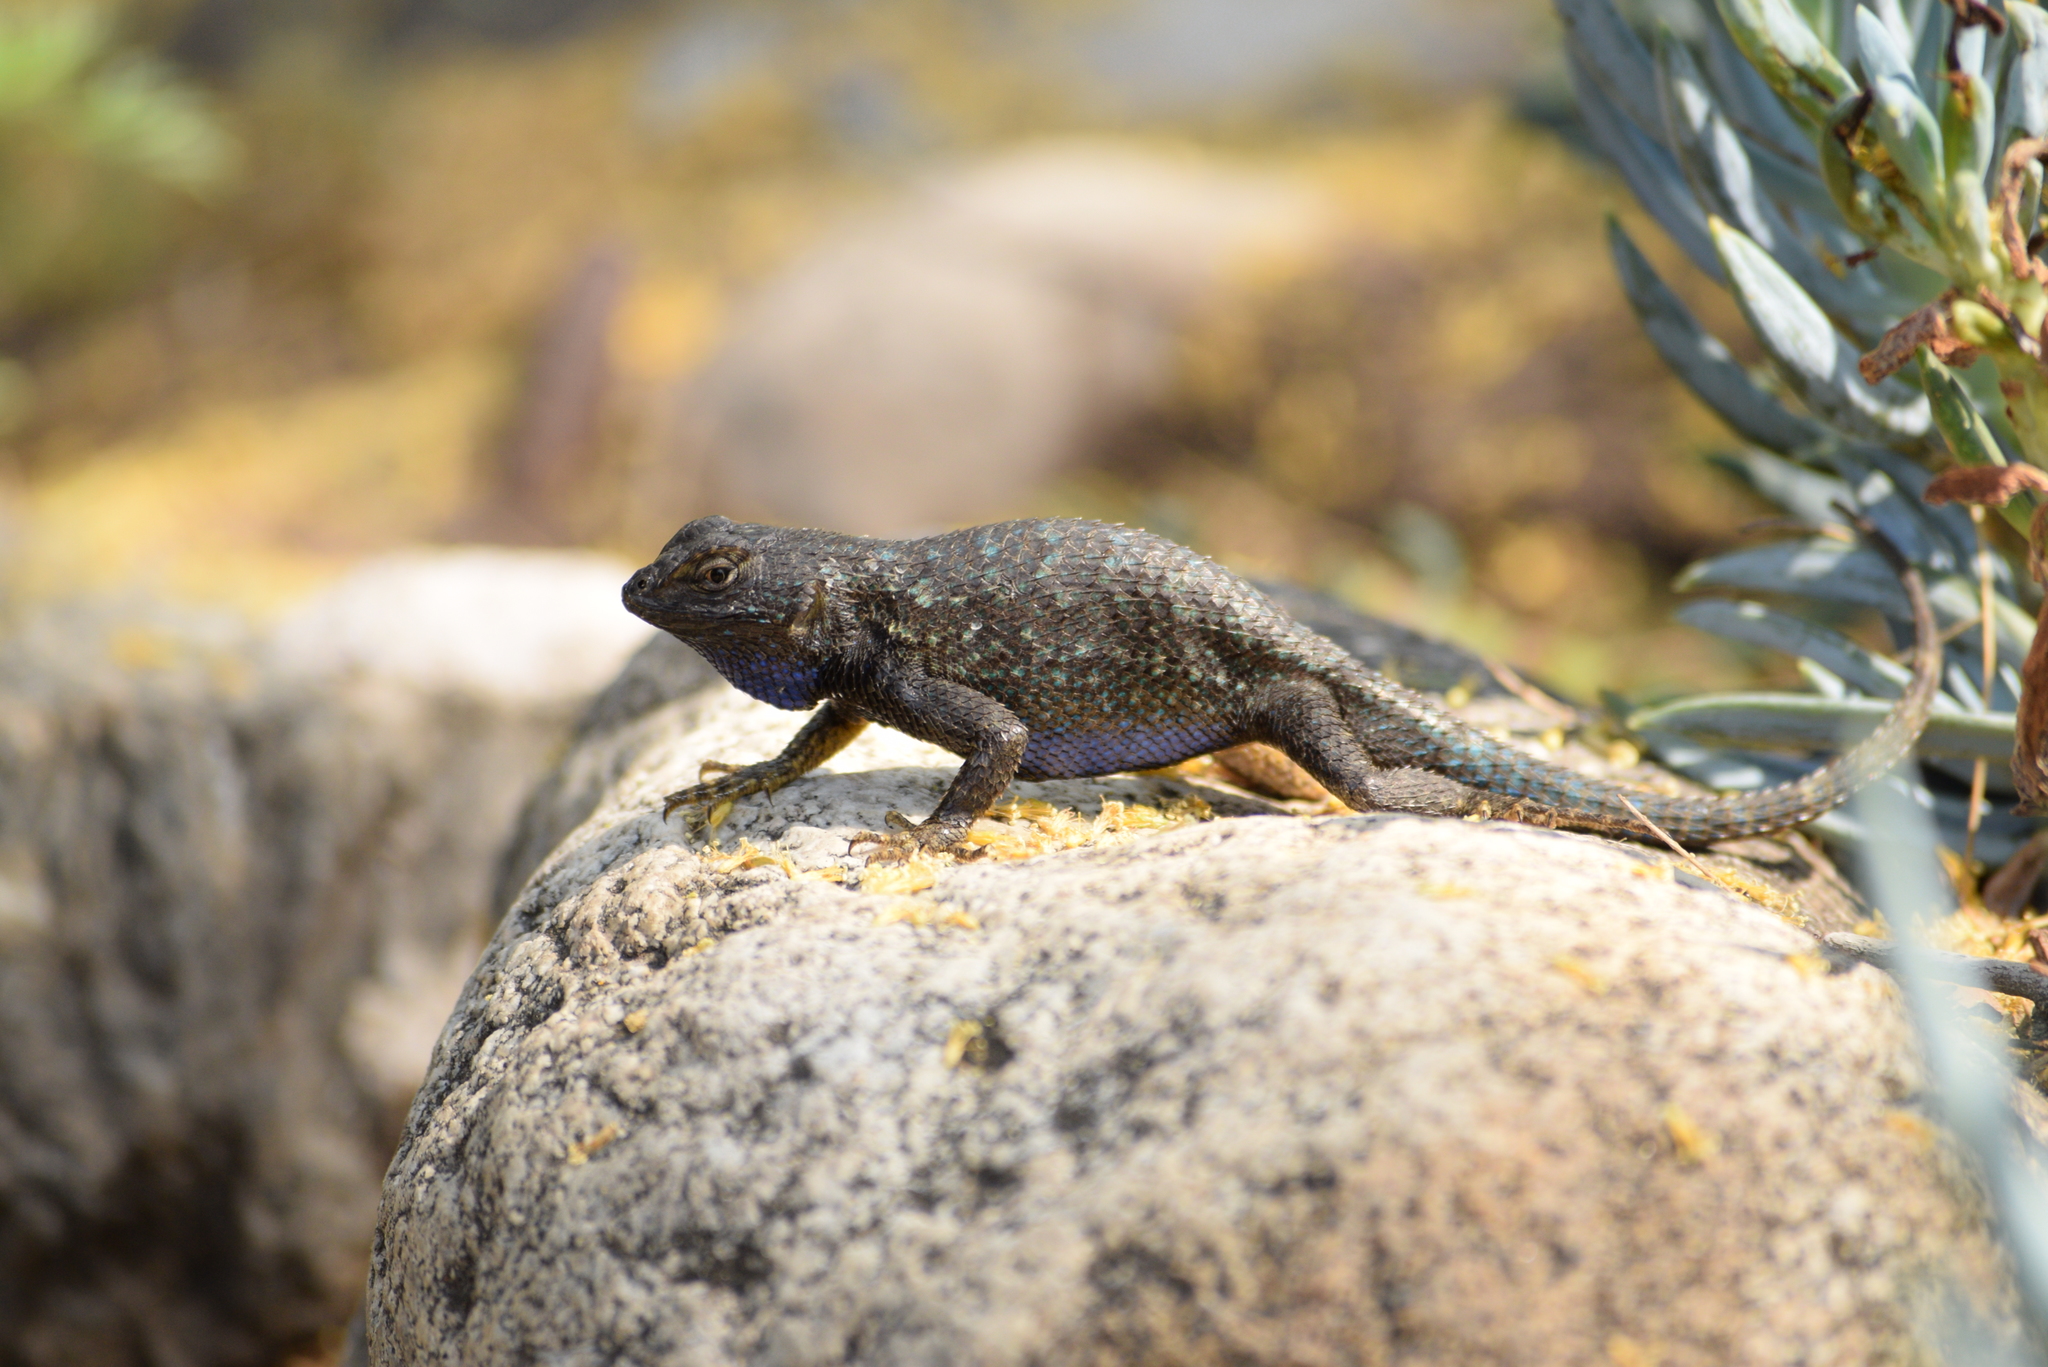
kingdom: Animalia
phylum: Chordata
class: Squamata
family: Phrynosomatidae
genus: Sceloporus
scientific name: Sceloporus occidentalis
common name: Western fence lizard
